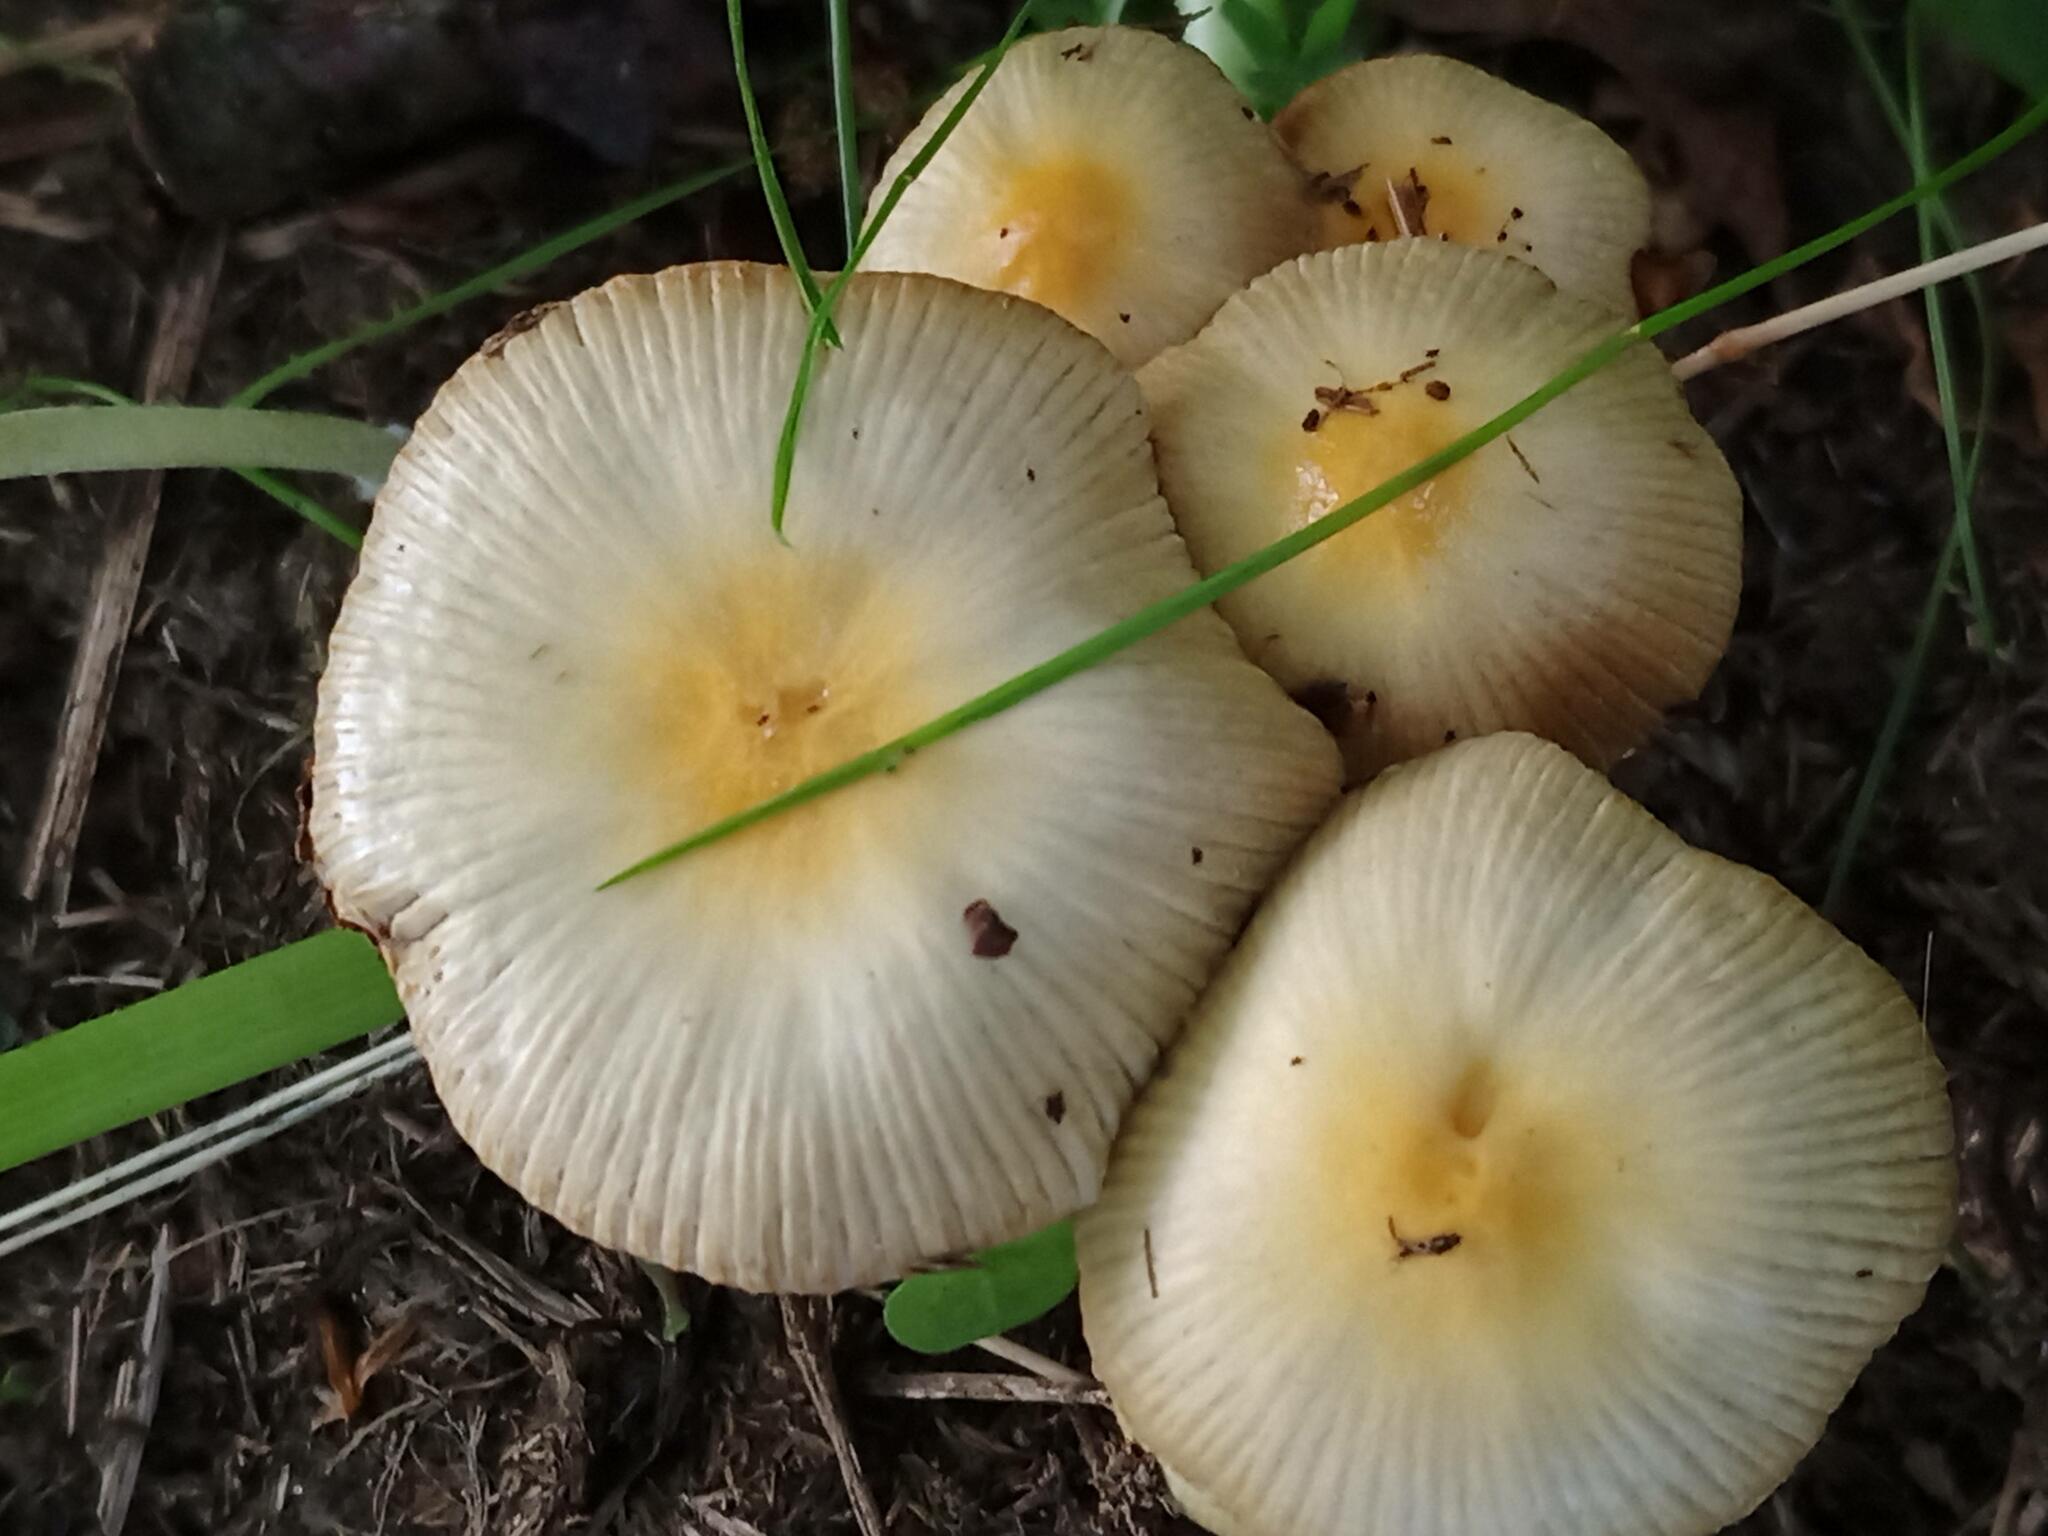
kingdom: Fungi
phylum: Basidiomycota
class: Agaricomycetes
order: Agaricales
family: Bolbitiaceae
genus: Bolbitius
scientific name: Bolbitius titubans
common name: Yellow fieldcap
